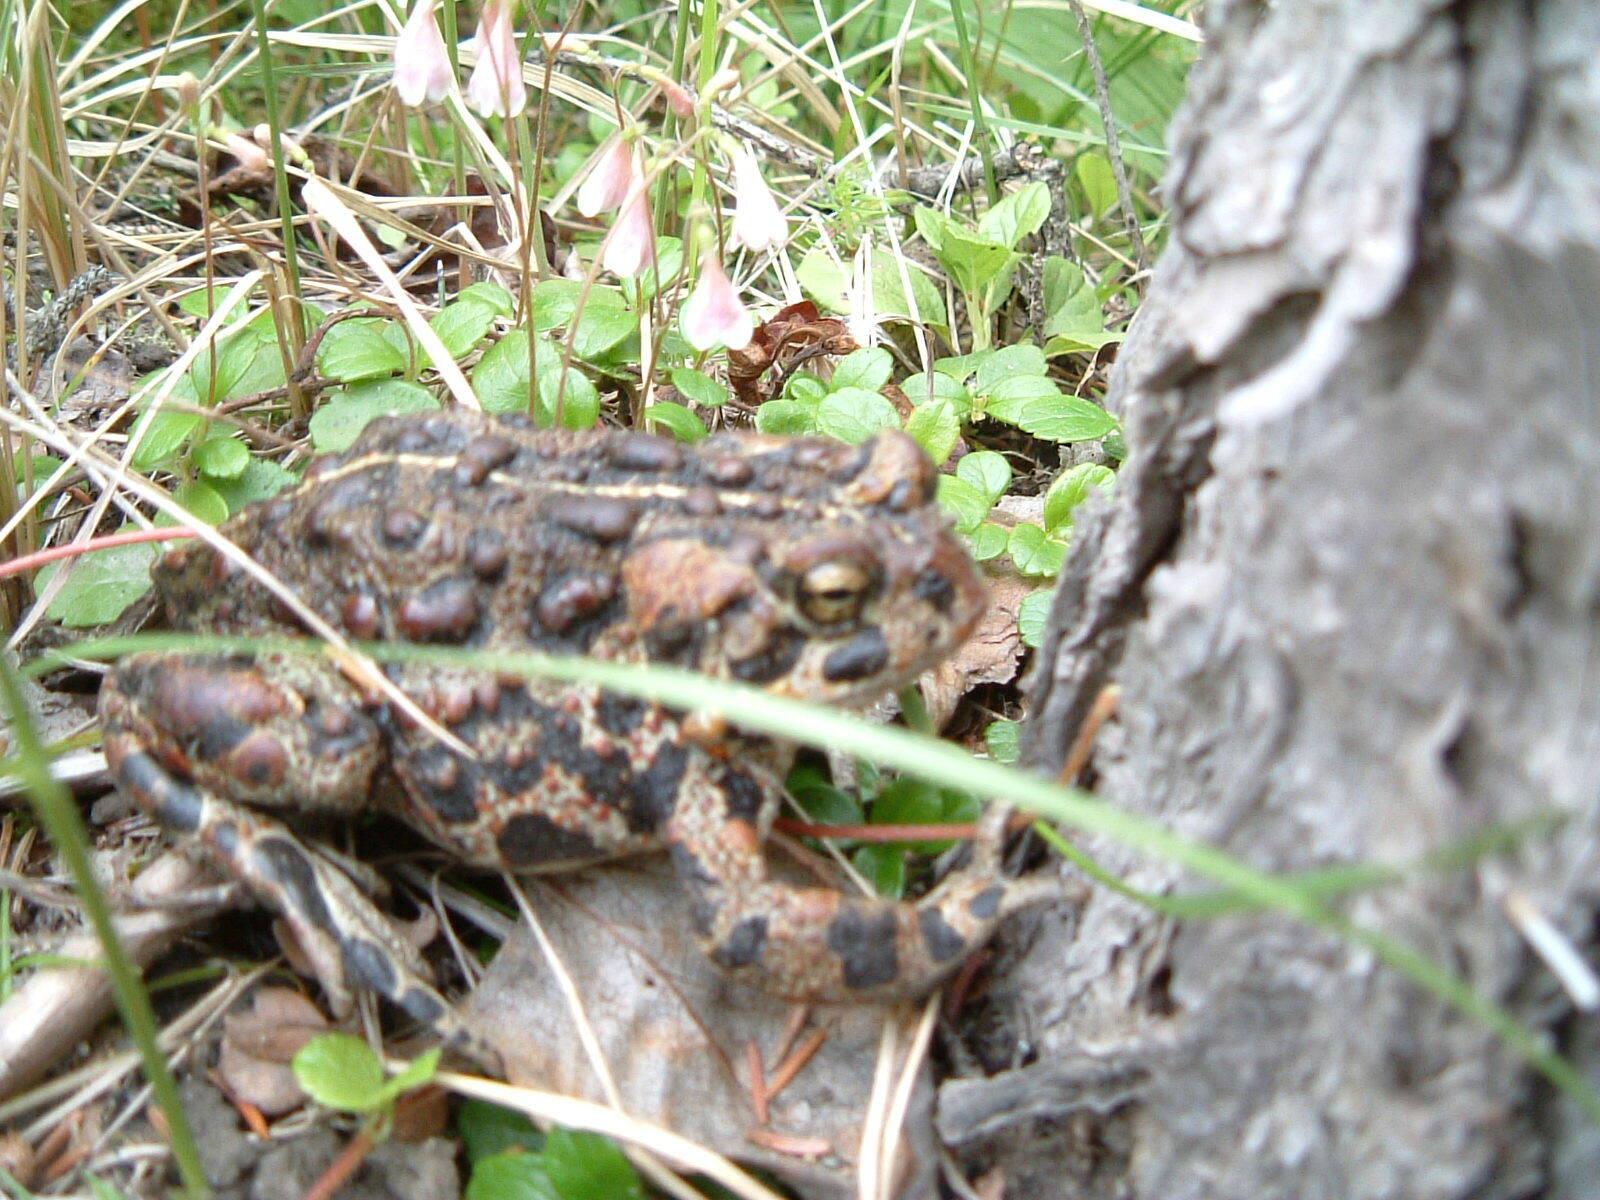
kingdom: Animalia
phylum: Chordata
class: Amphibia
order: Anura
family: Bufonidae
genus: Anaxyrus
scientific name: Anaxyrus boreas
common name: Western toad
